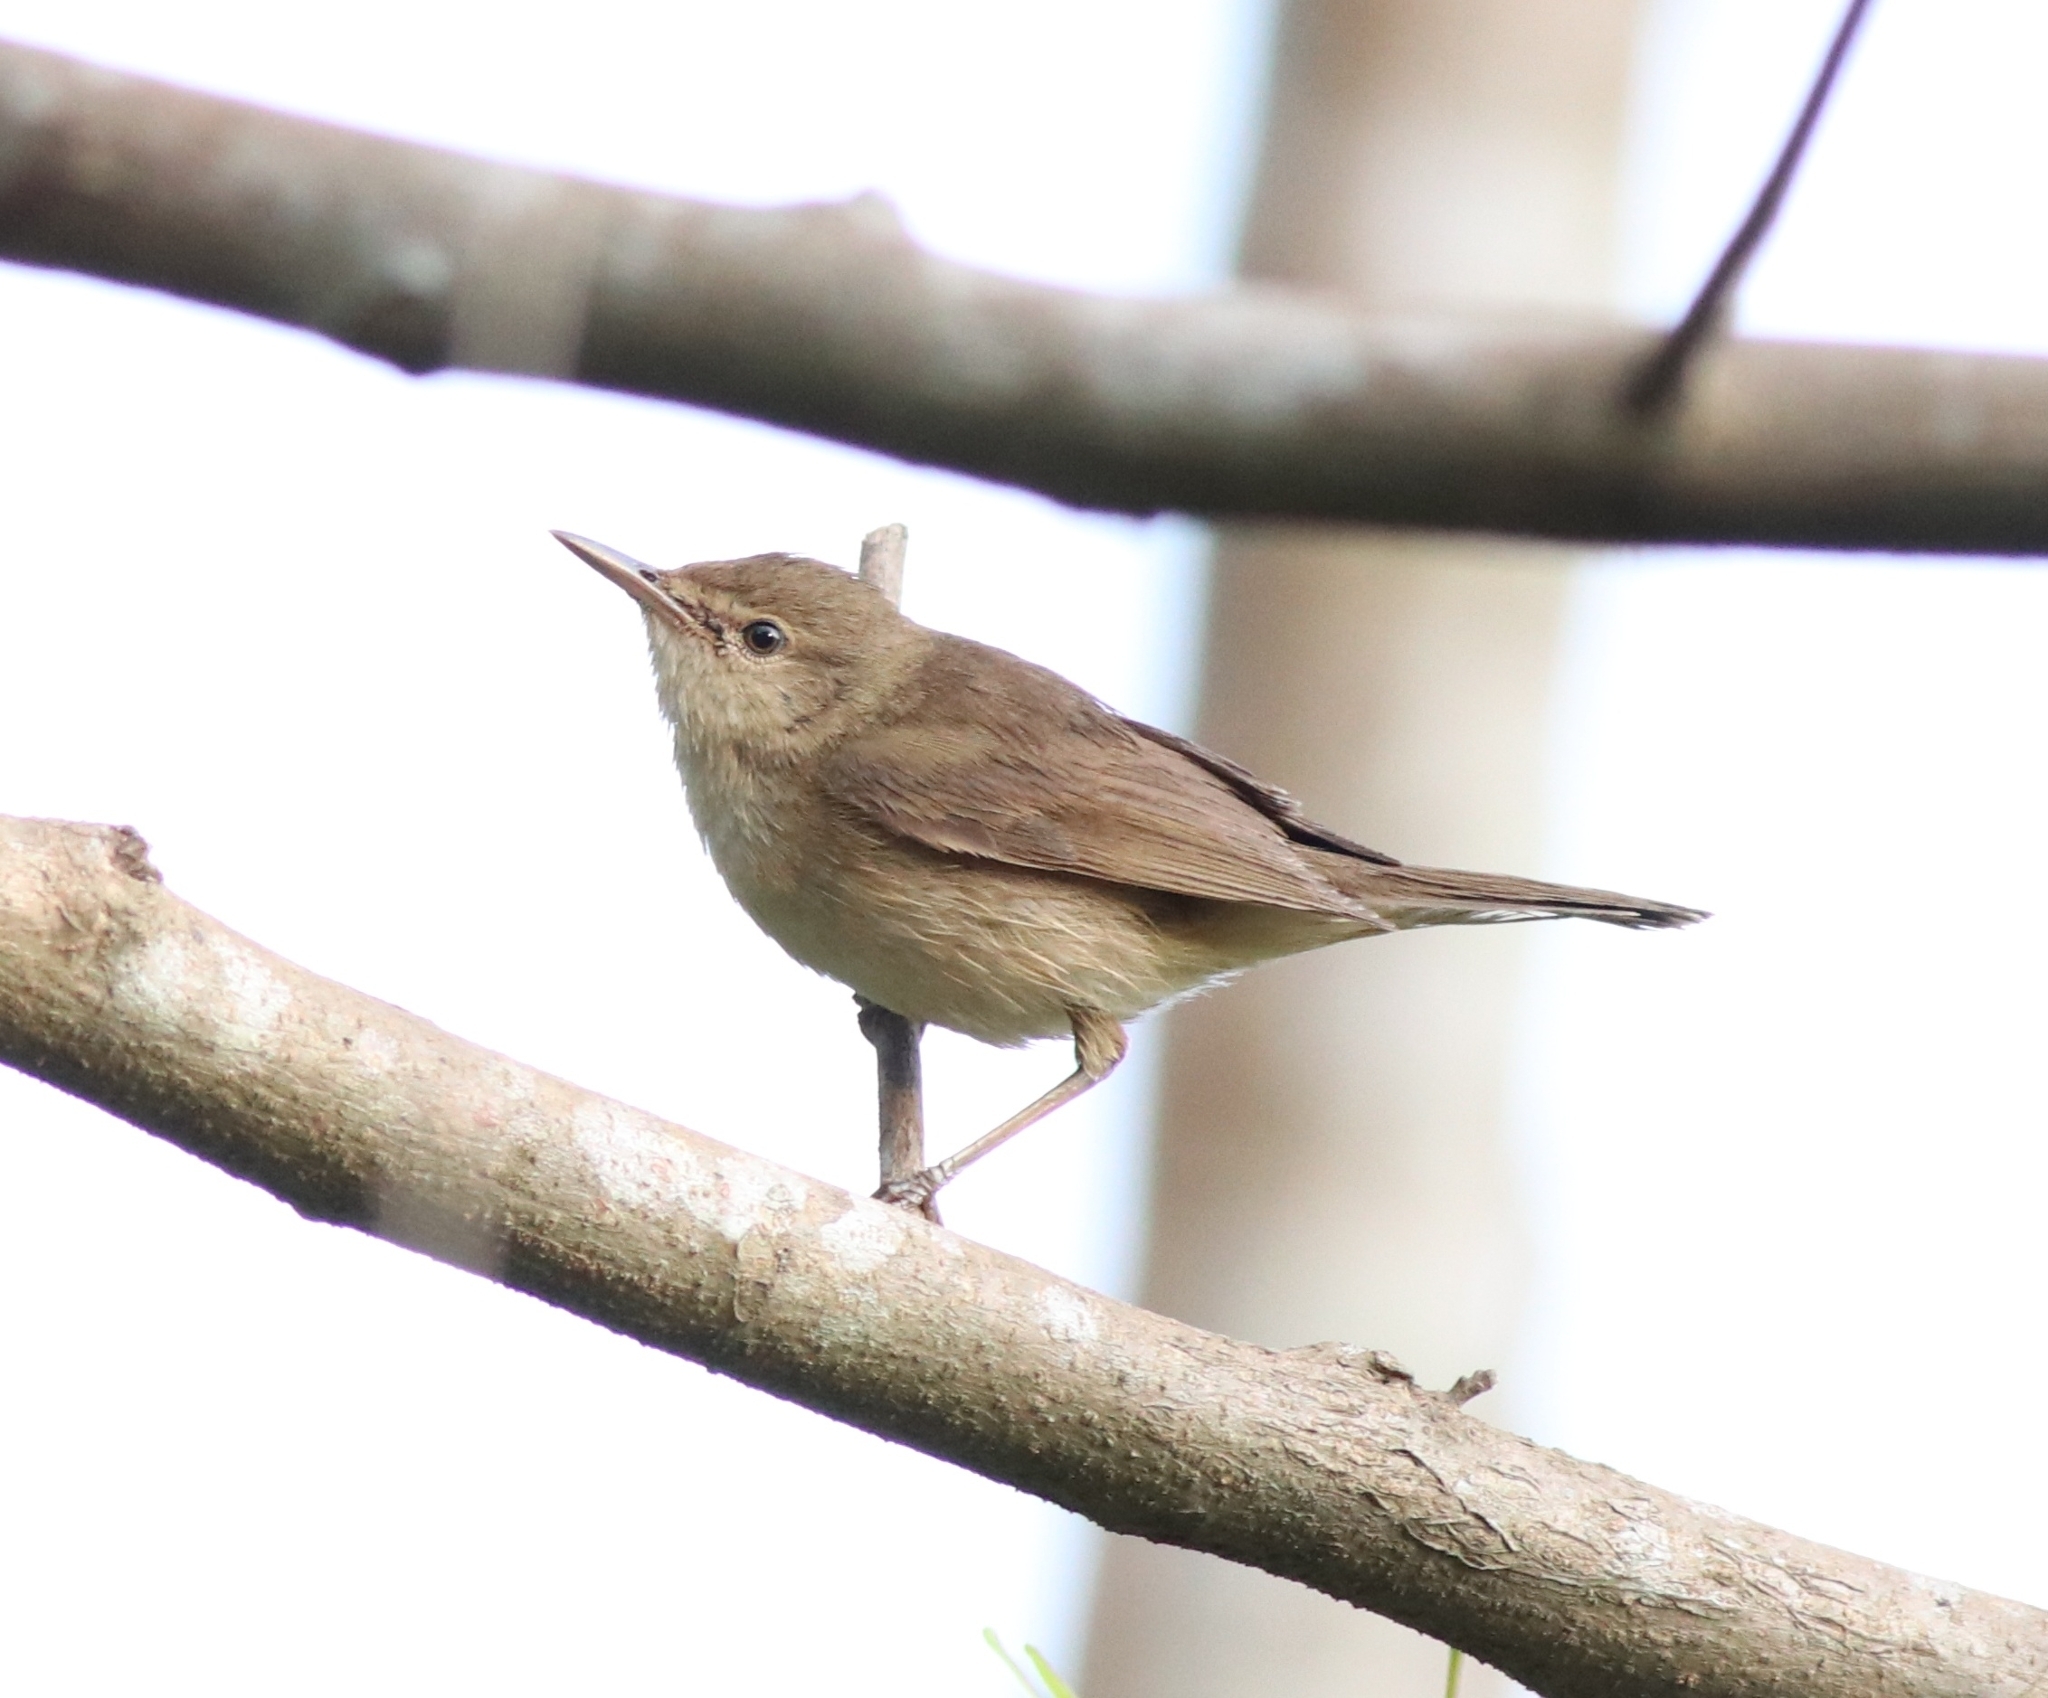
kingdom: Animalia
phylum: Chordata
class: Aves
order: Passeriformes
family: Acrocephalidae
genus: Acrocephalus
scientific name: Acrocephalus dumetorum
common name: Blyth's reed warbler
